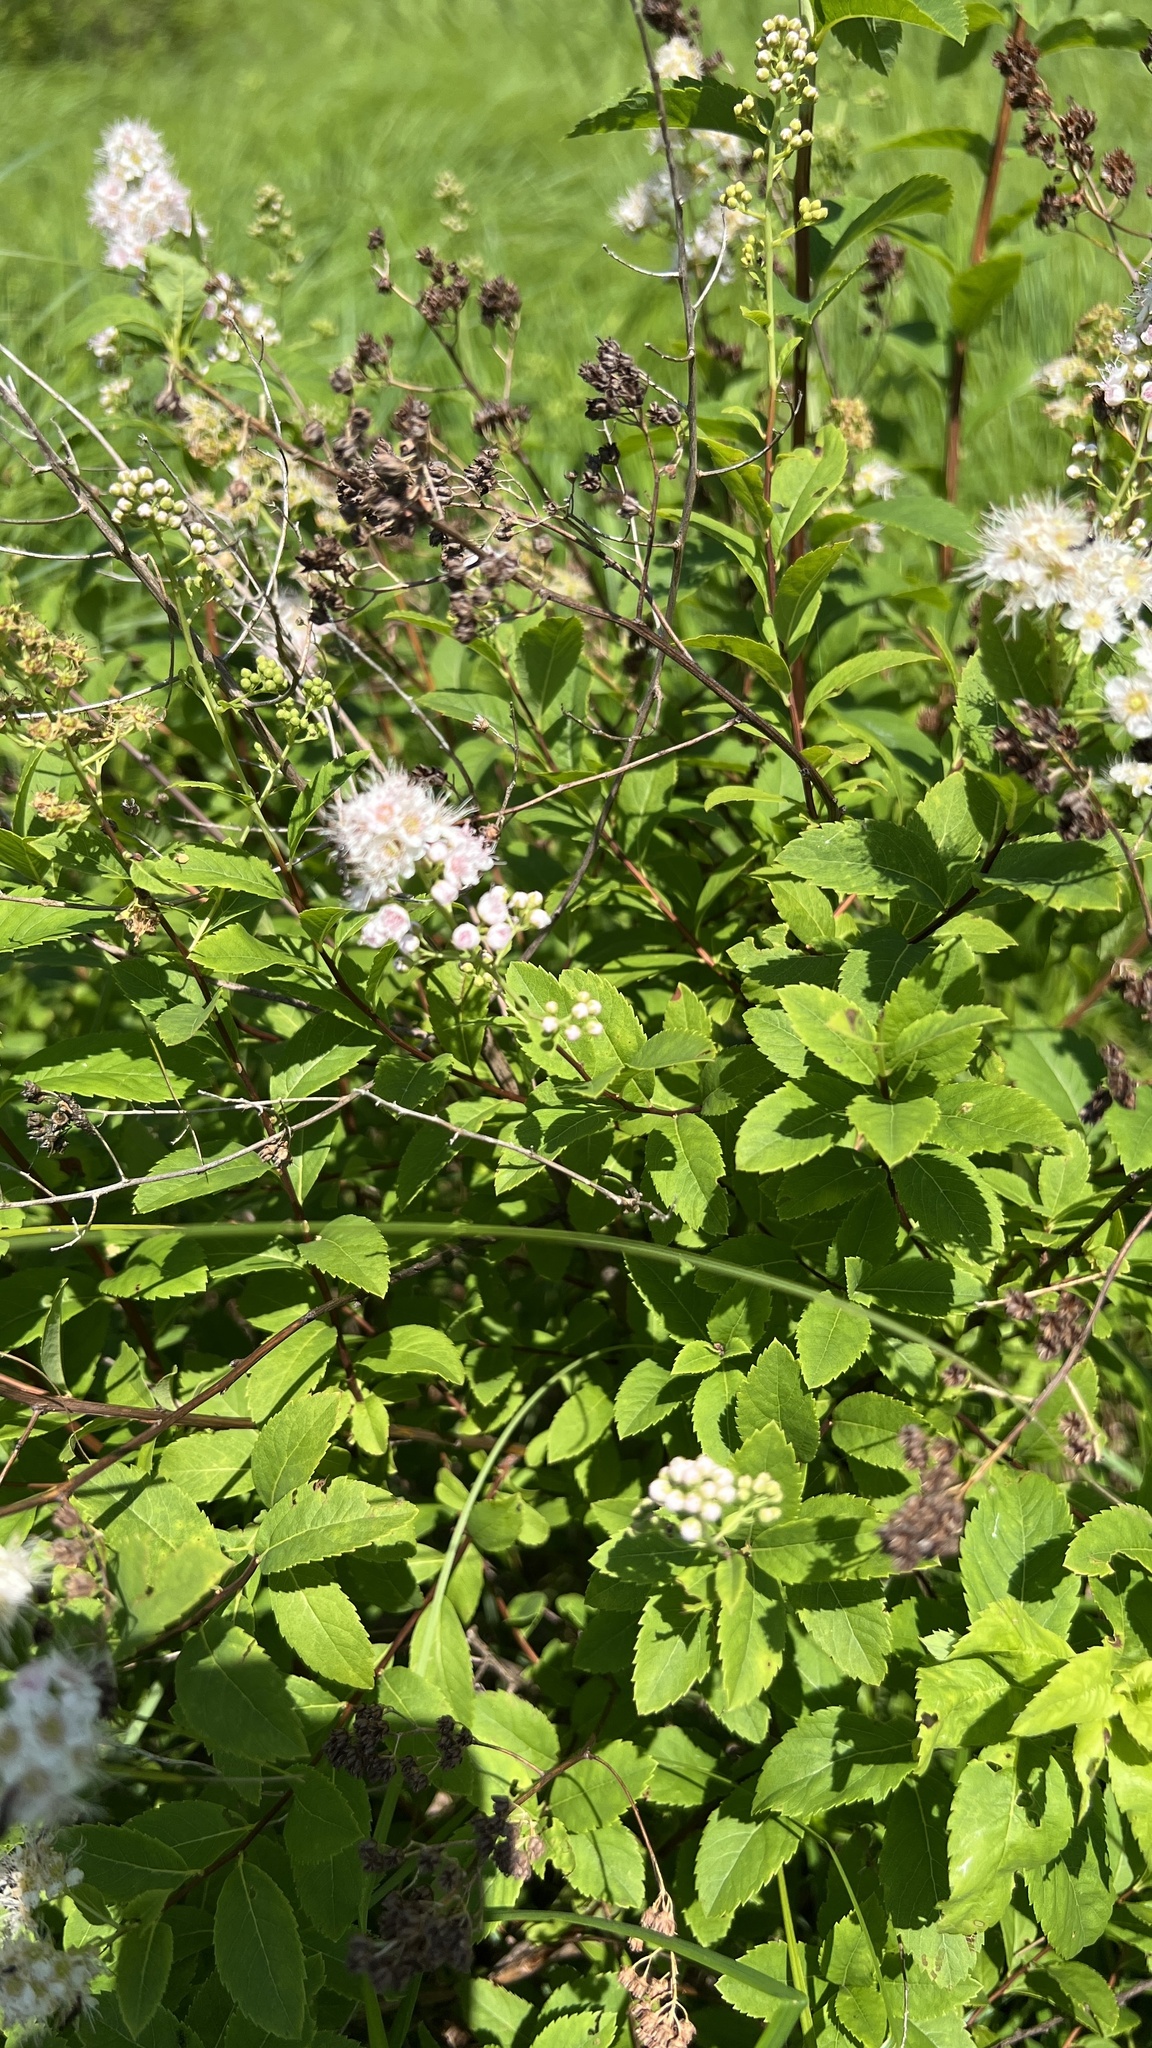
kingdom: Plantae
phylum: Tracheophyta
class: Magnoliopsida
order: Rosales
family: Rosaceae
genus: Spiraea
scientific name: Spiraea alba
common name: Pale bridewort
